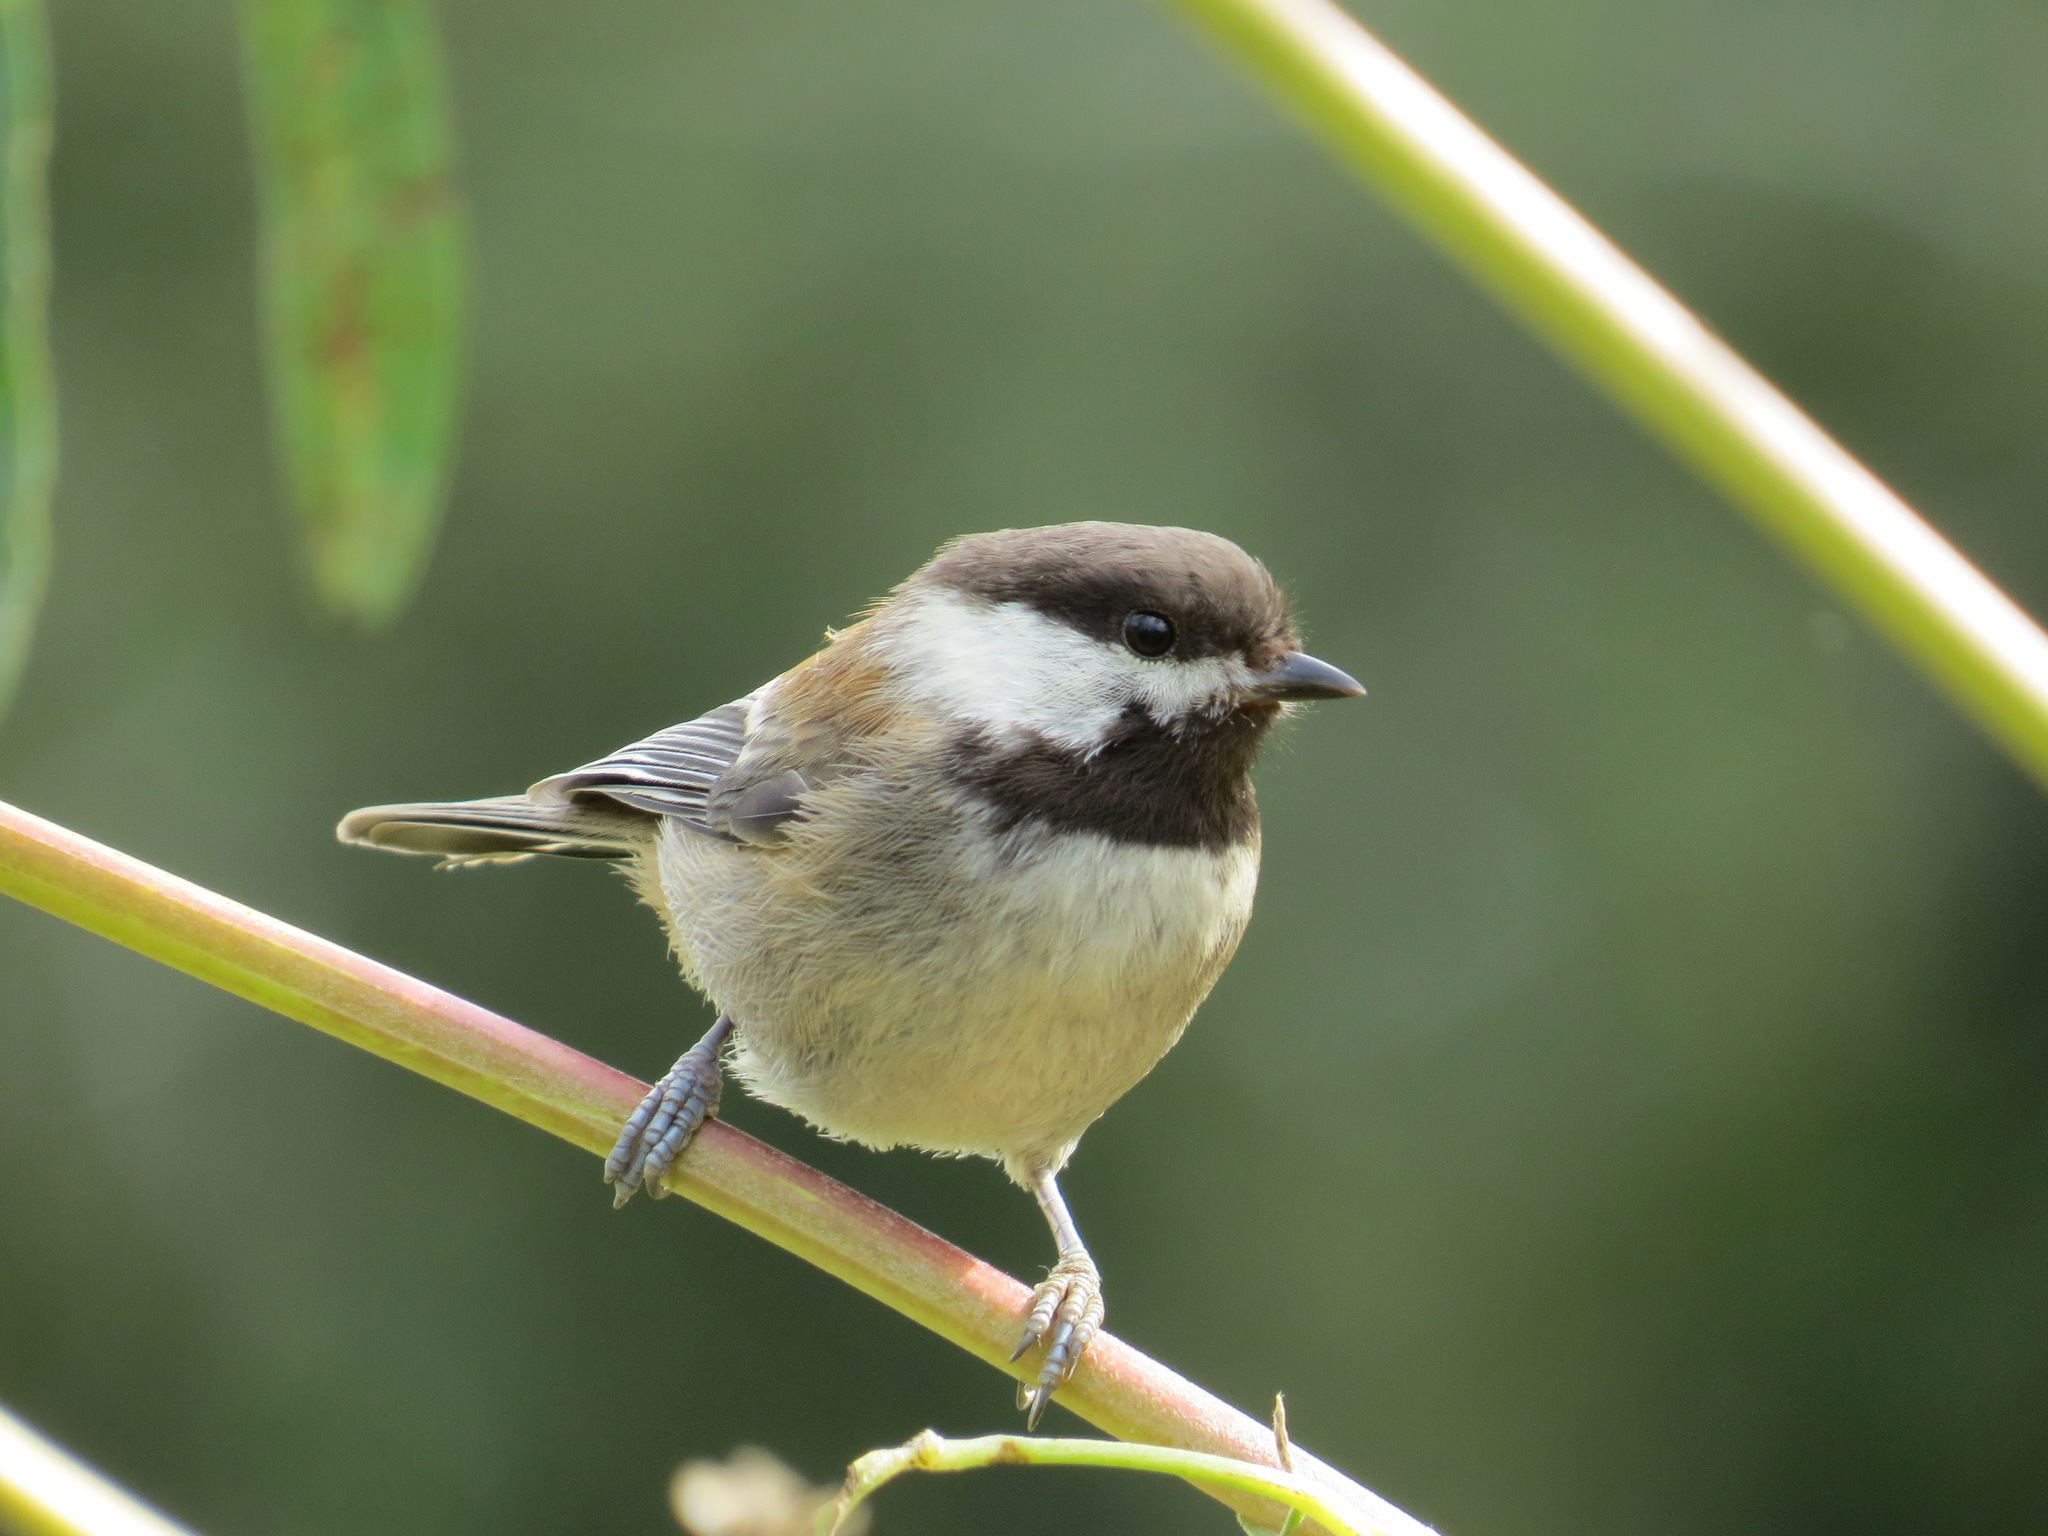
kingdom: Animalia
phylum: Chordata
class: Aves
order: Passeriformes
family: Paridae
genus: Poecile
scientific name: Poecile rufescens
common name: Chestnut-backed chickadee
